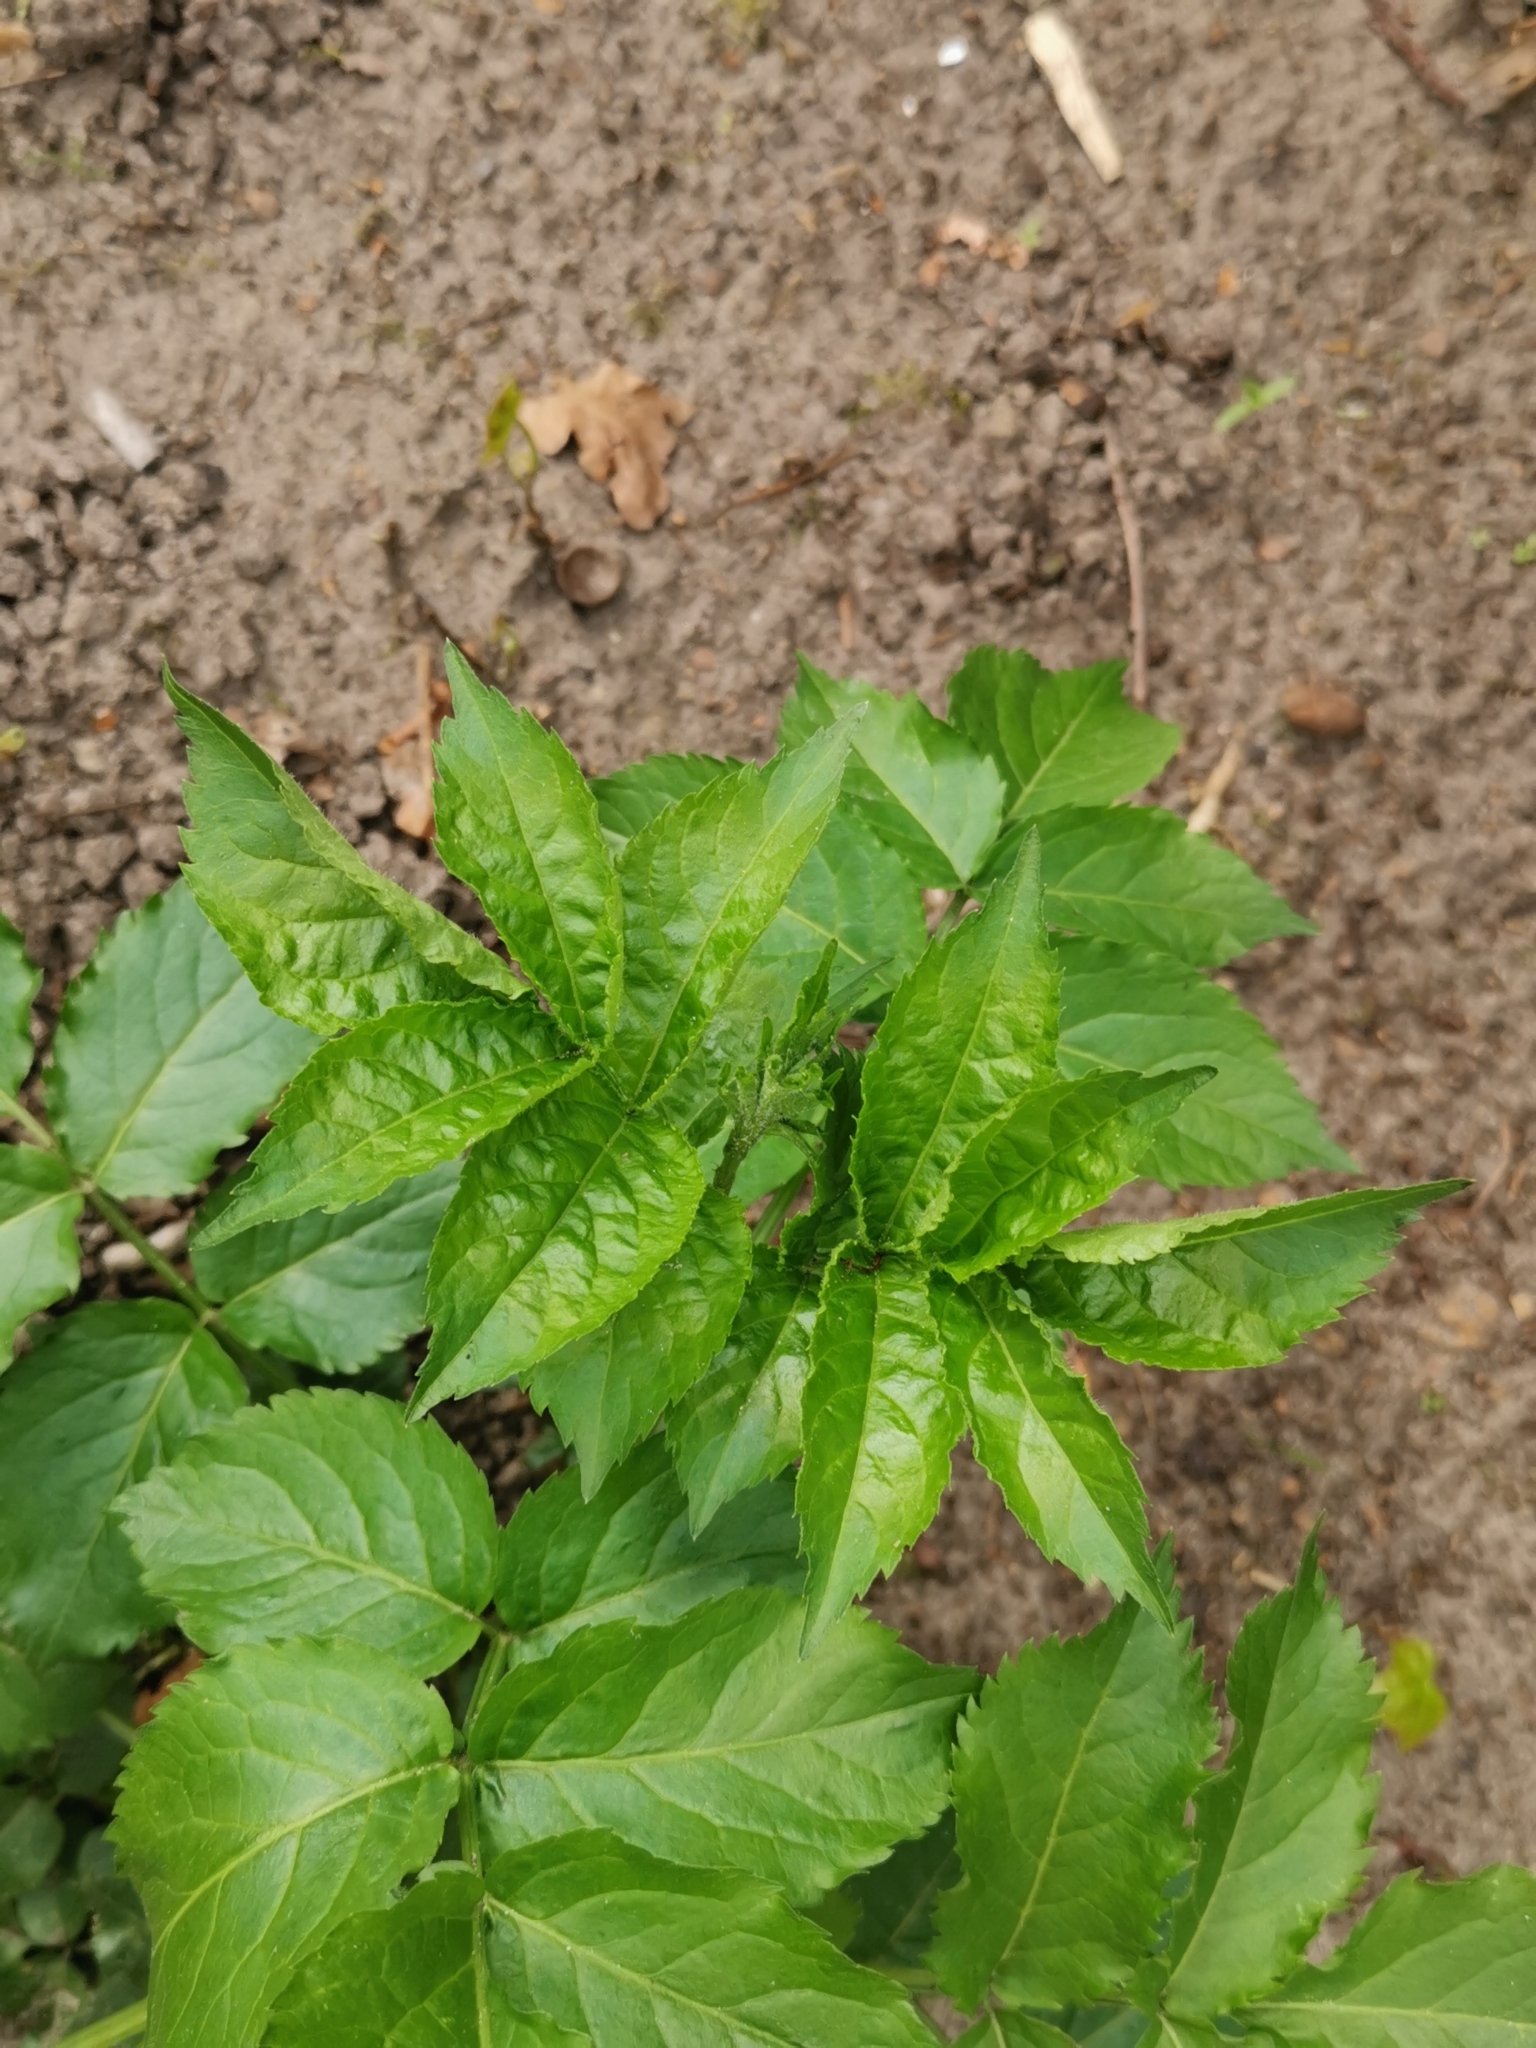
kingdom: Plantae
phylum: Tracheophyta
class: Magnoliopsida
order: Dipsacales
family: Viburnaceae
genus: Sambucus
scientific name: Sambucus nigra
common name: Elder
